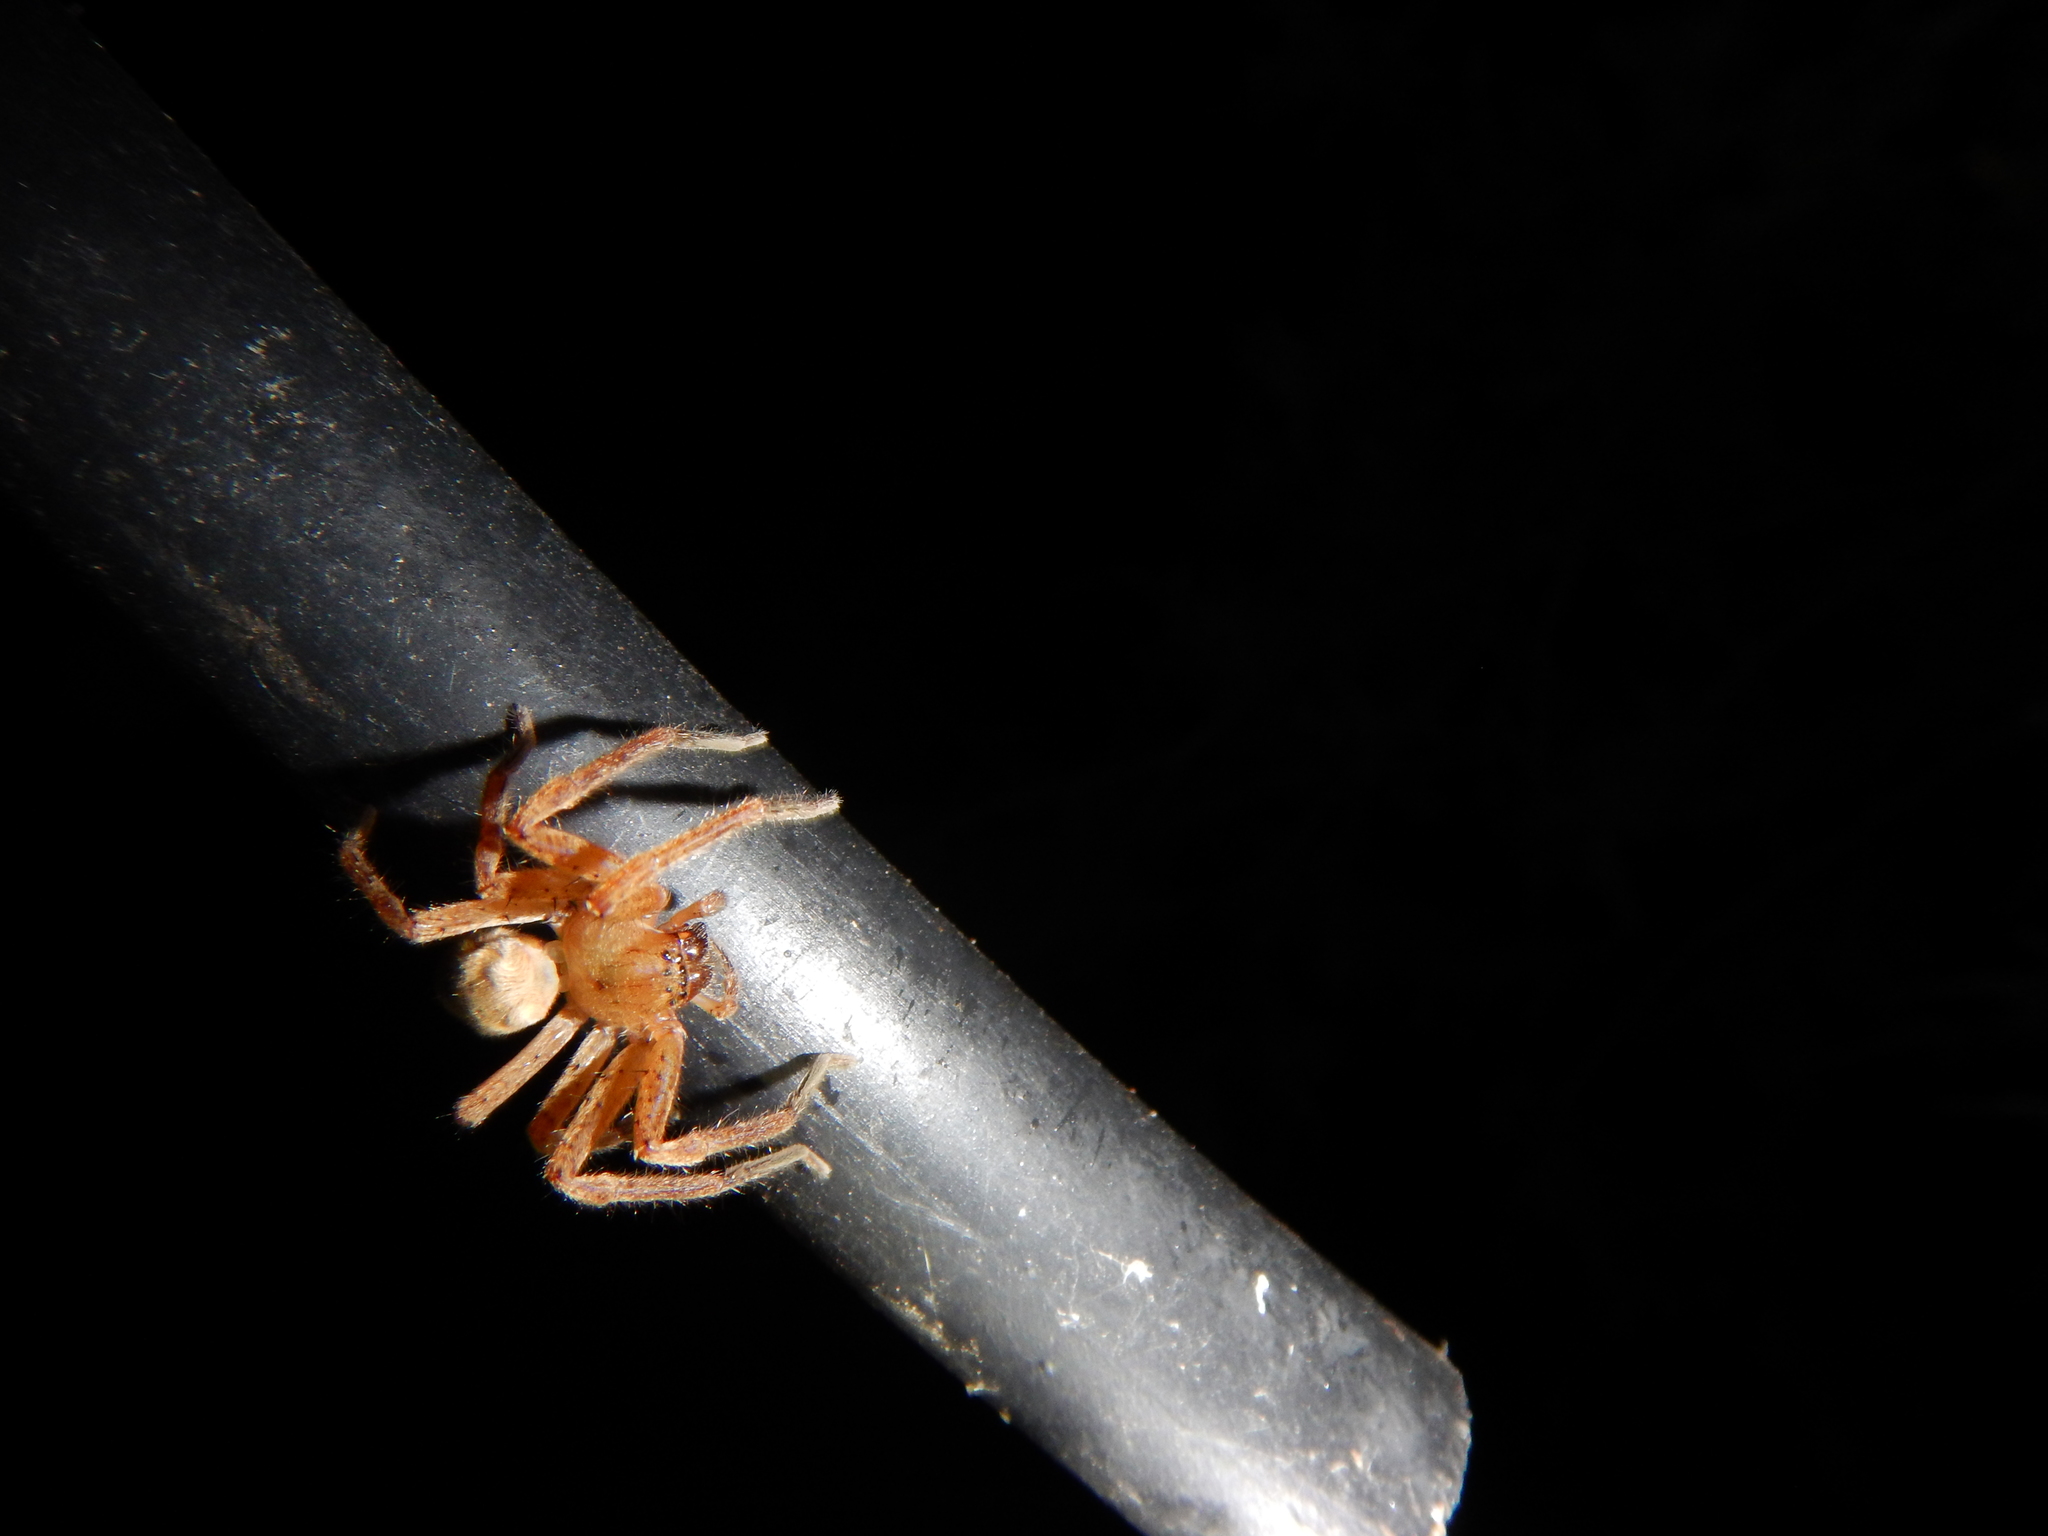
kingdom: Animalia
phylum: Arthropoda
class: Arachnida
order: Araneae
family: Sparassidae
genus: Olios
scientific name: Olios argelasius
